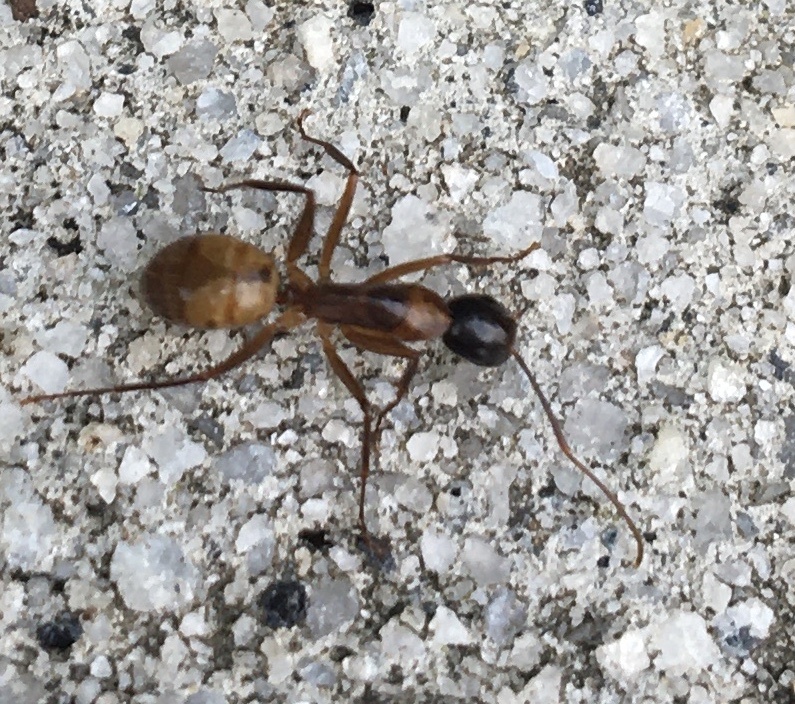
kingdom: Animalia
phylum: Arthropoda
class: Insecta
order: Hymenoptera
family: Formicidae
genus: Camponotus
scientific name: Camponotus americanus
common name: American carpenter ant
